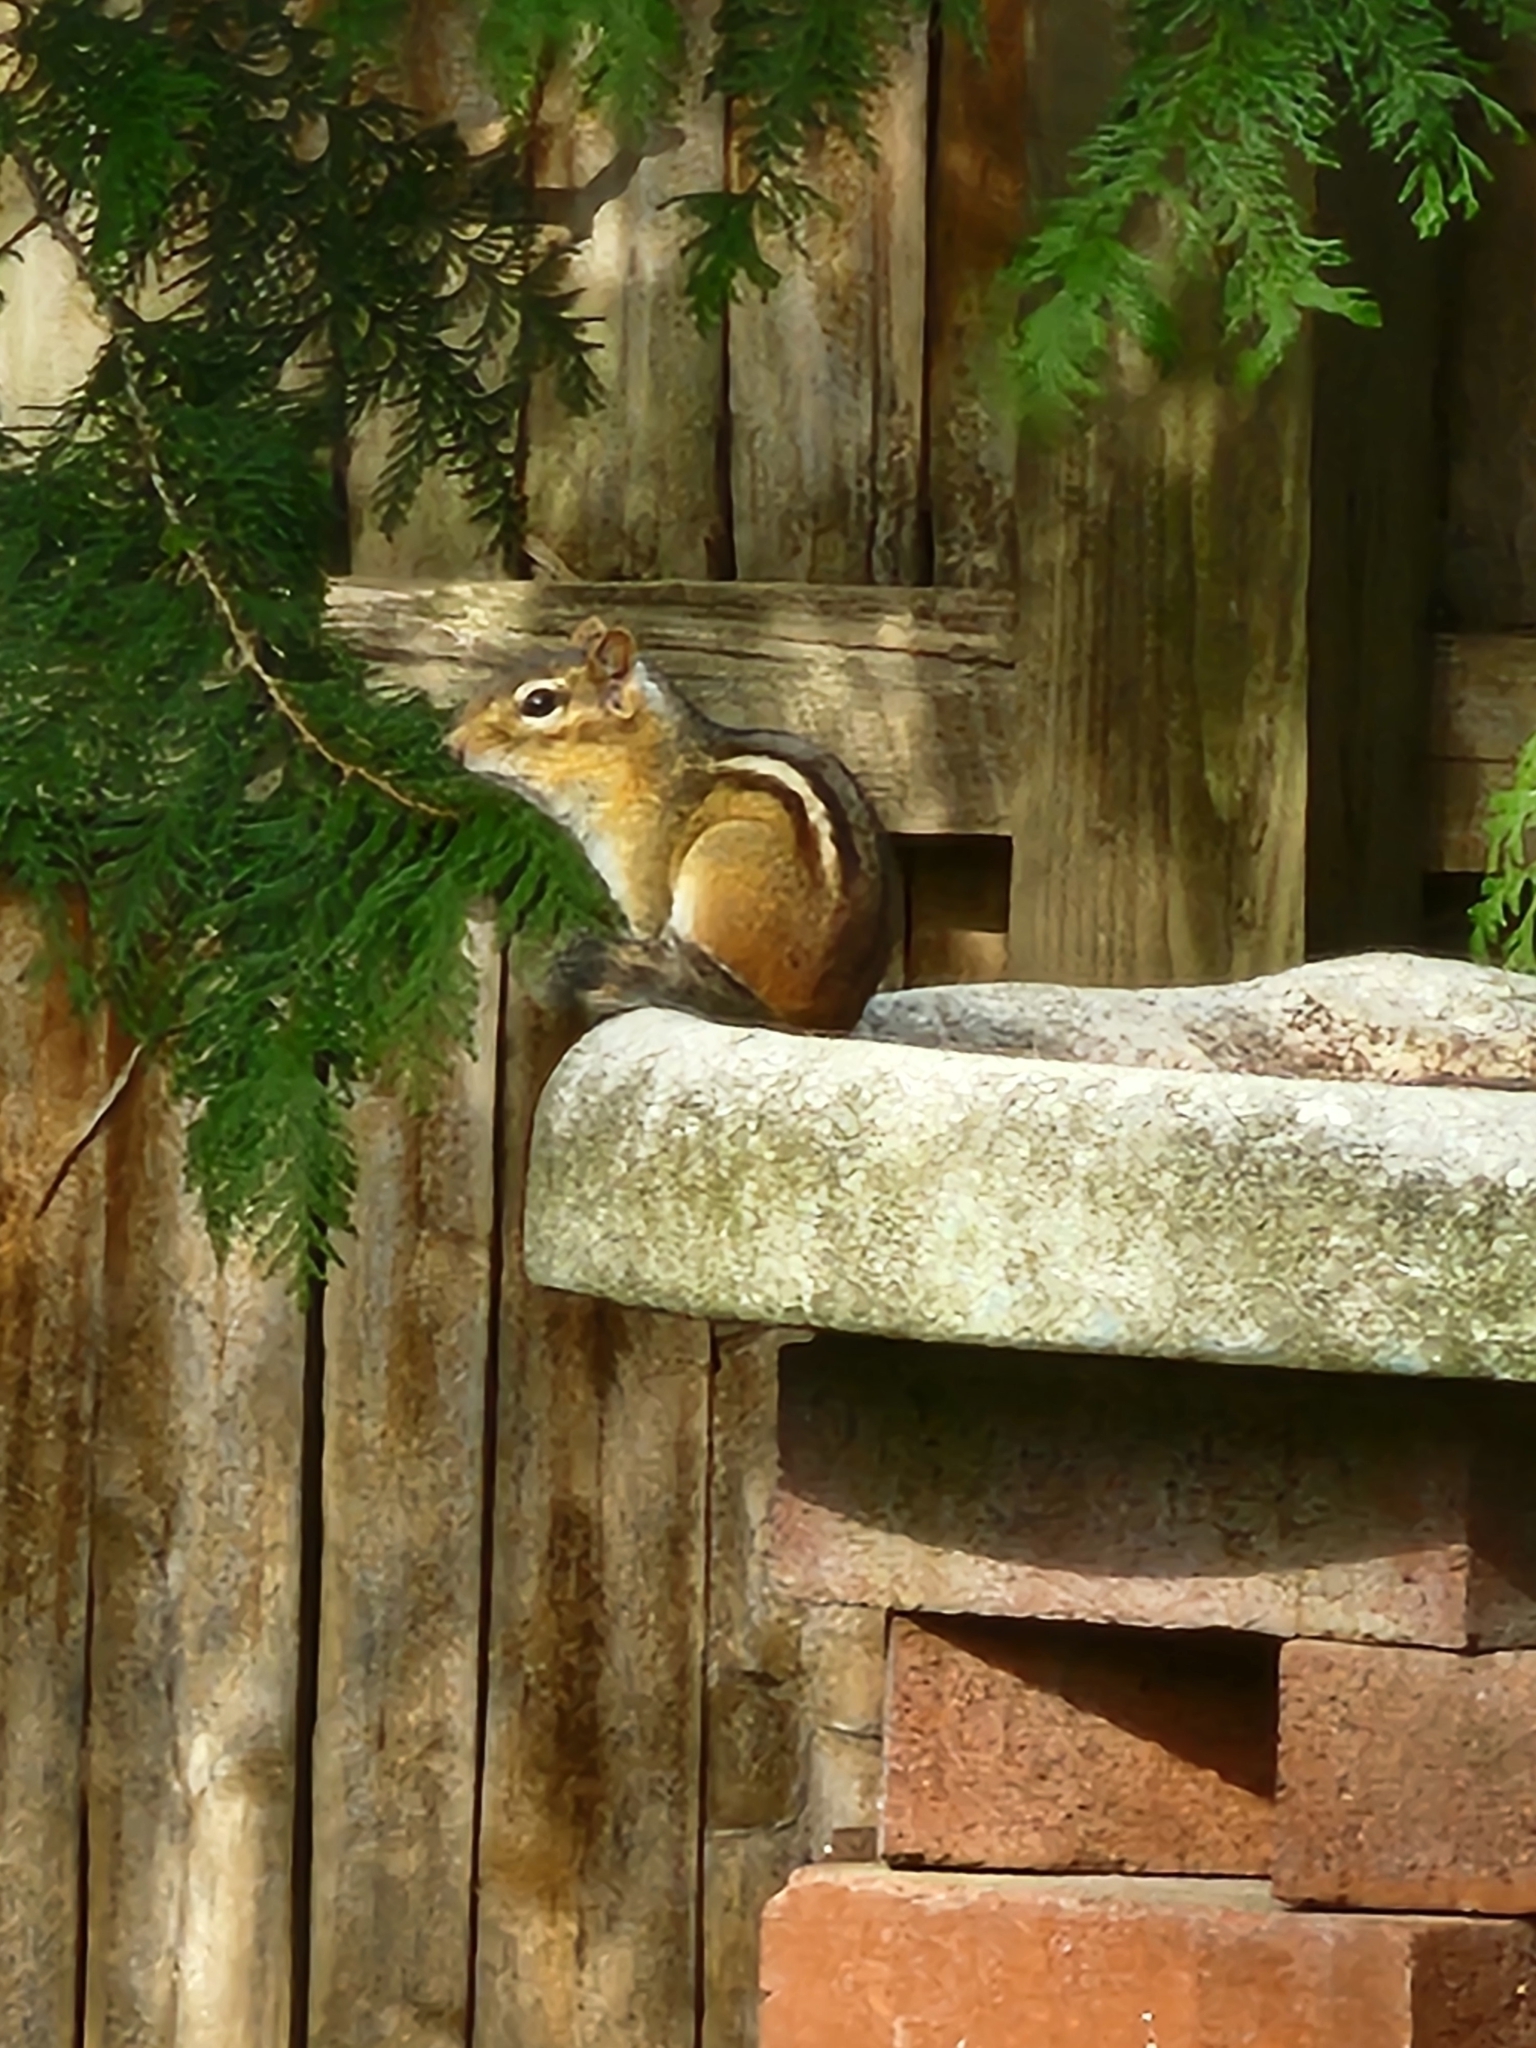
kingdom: Animalia
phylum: Chordata
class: Mammalia
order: Rodentia
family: Sciuridae
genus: Tamias
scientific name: Tamias striatus
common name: Eastern chipmunk
